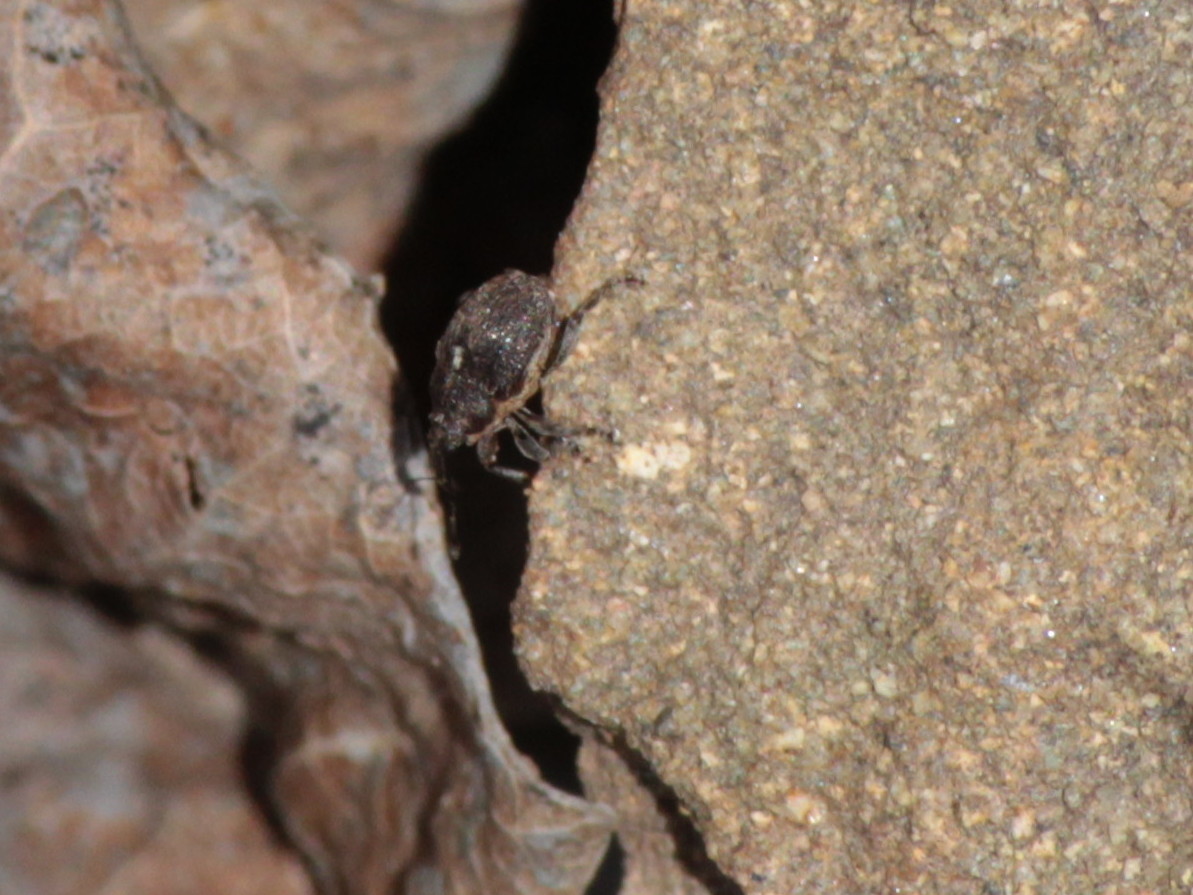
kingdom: Animalia
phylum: Arthropoda
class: Insecta
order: Coleoptera
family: Curculionidae
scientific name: Curculionidae
